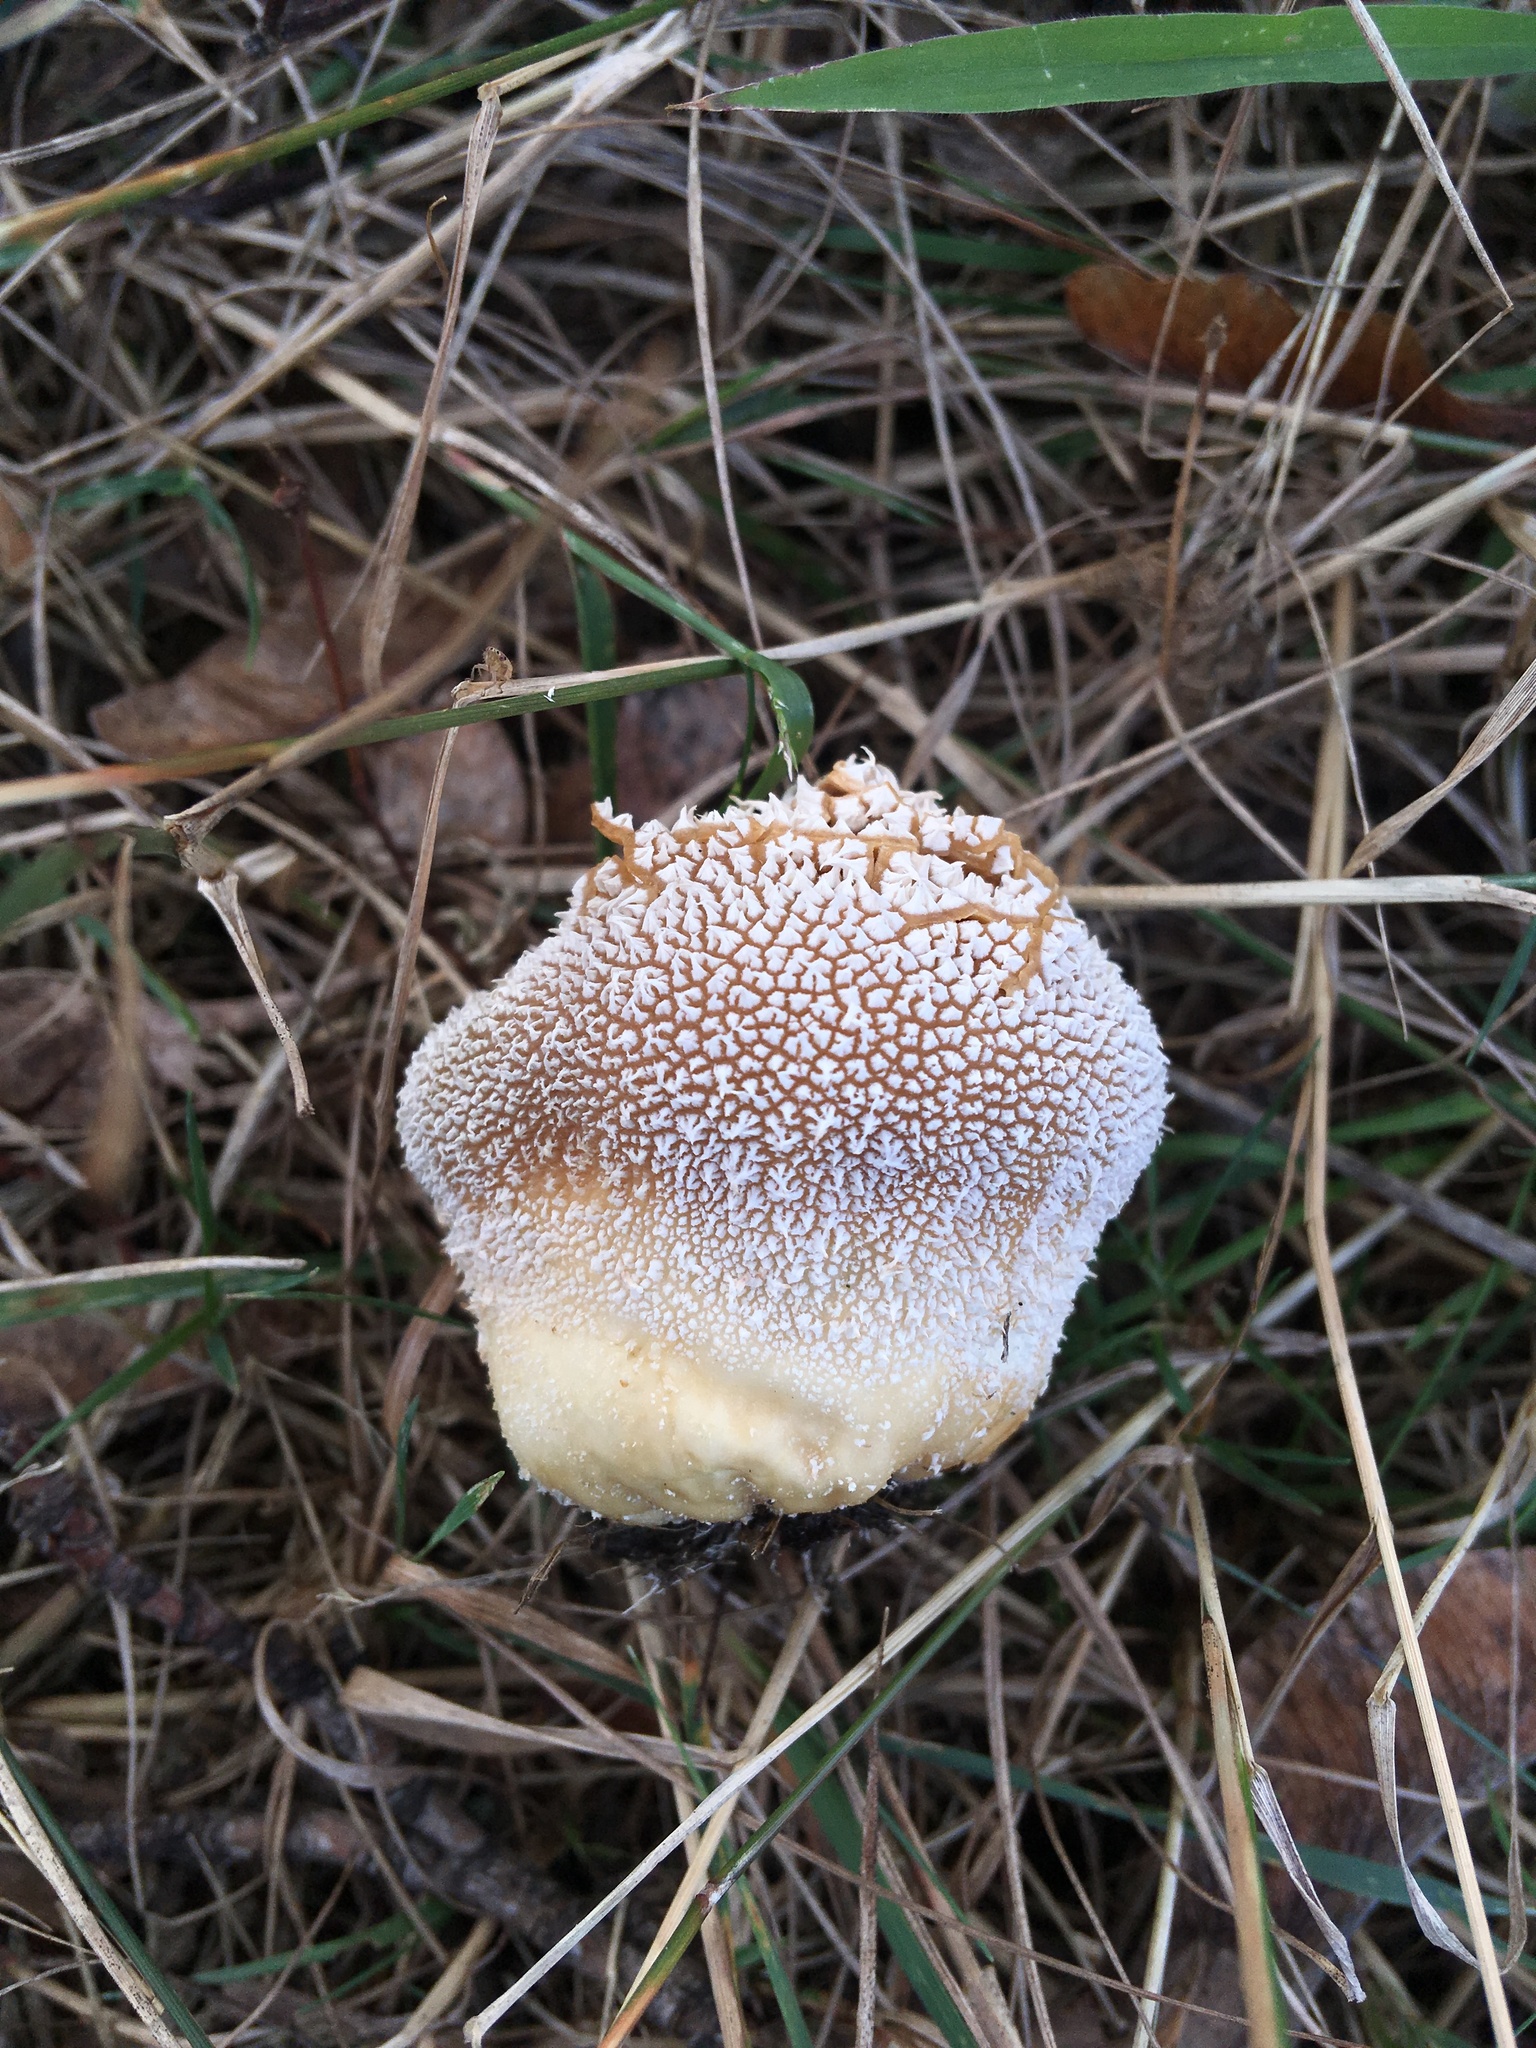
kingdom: Fungi
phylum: Basidiomycota
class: Agaricomycetes
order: Agaricales
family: Agaricaceae
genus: Lycoperdon
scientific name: Lycoperdon marginatum
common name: Peeling puffball
